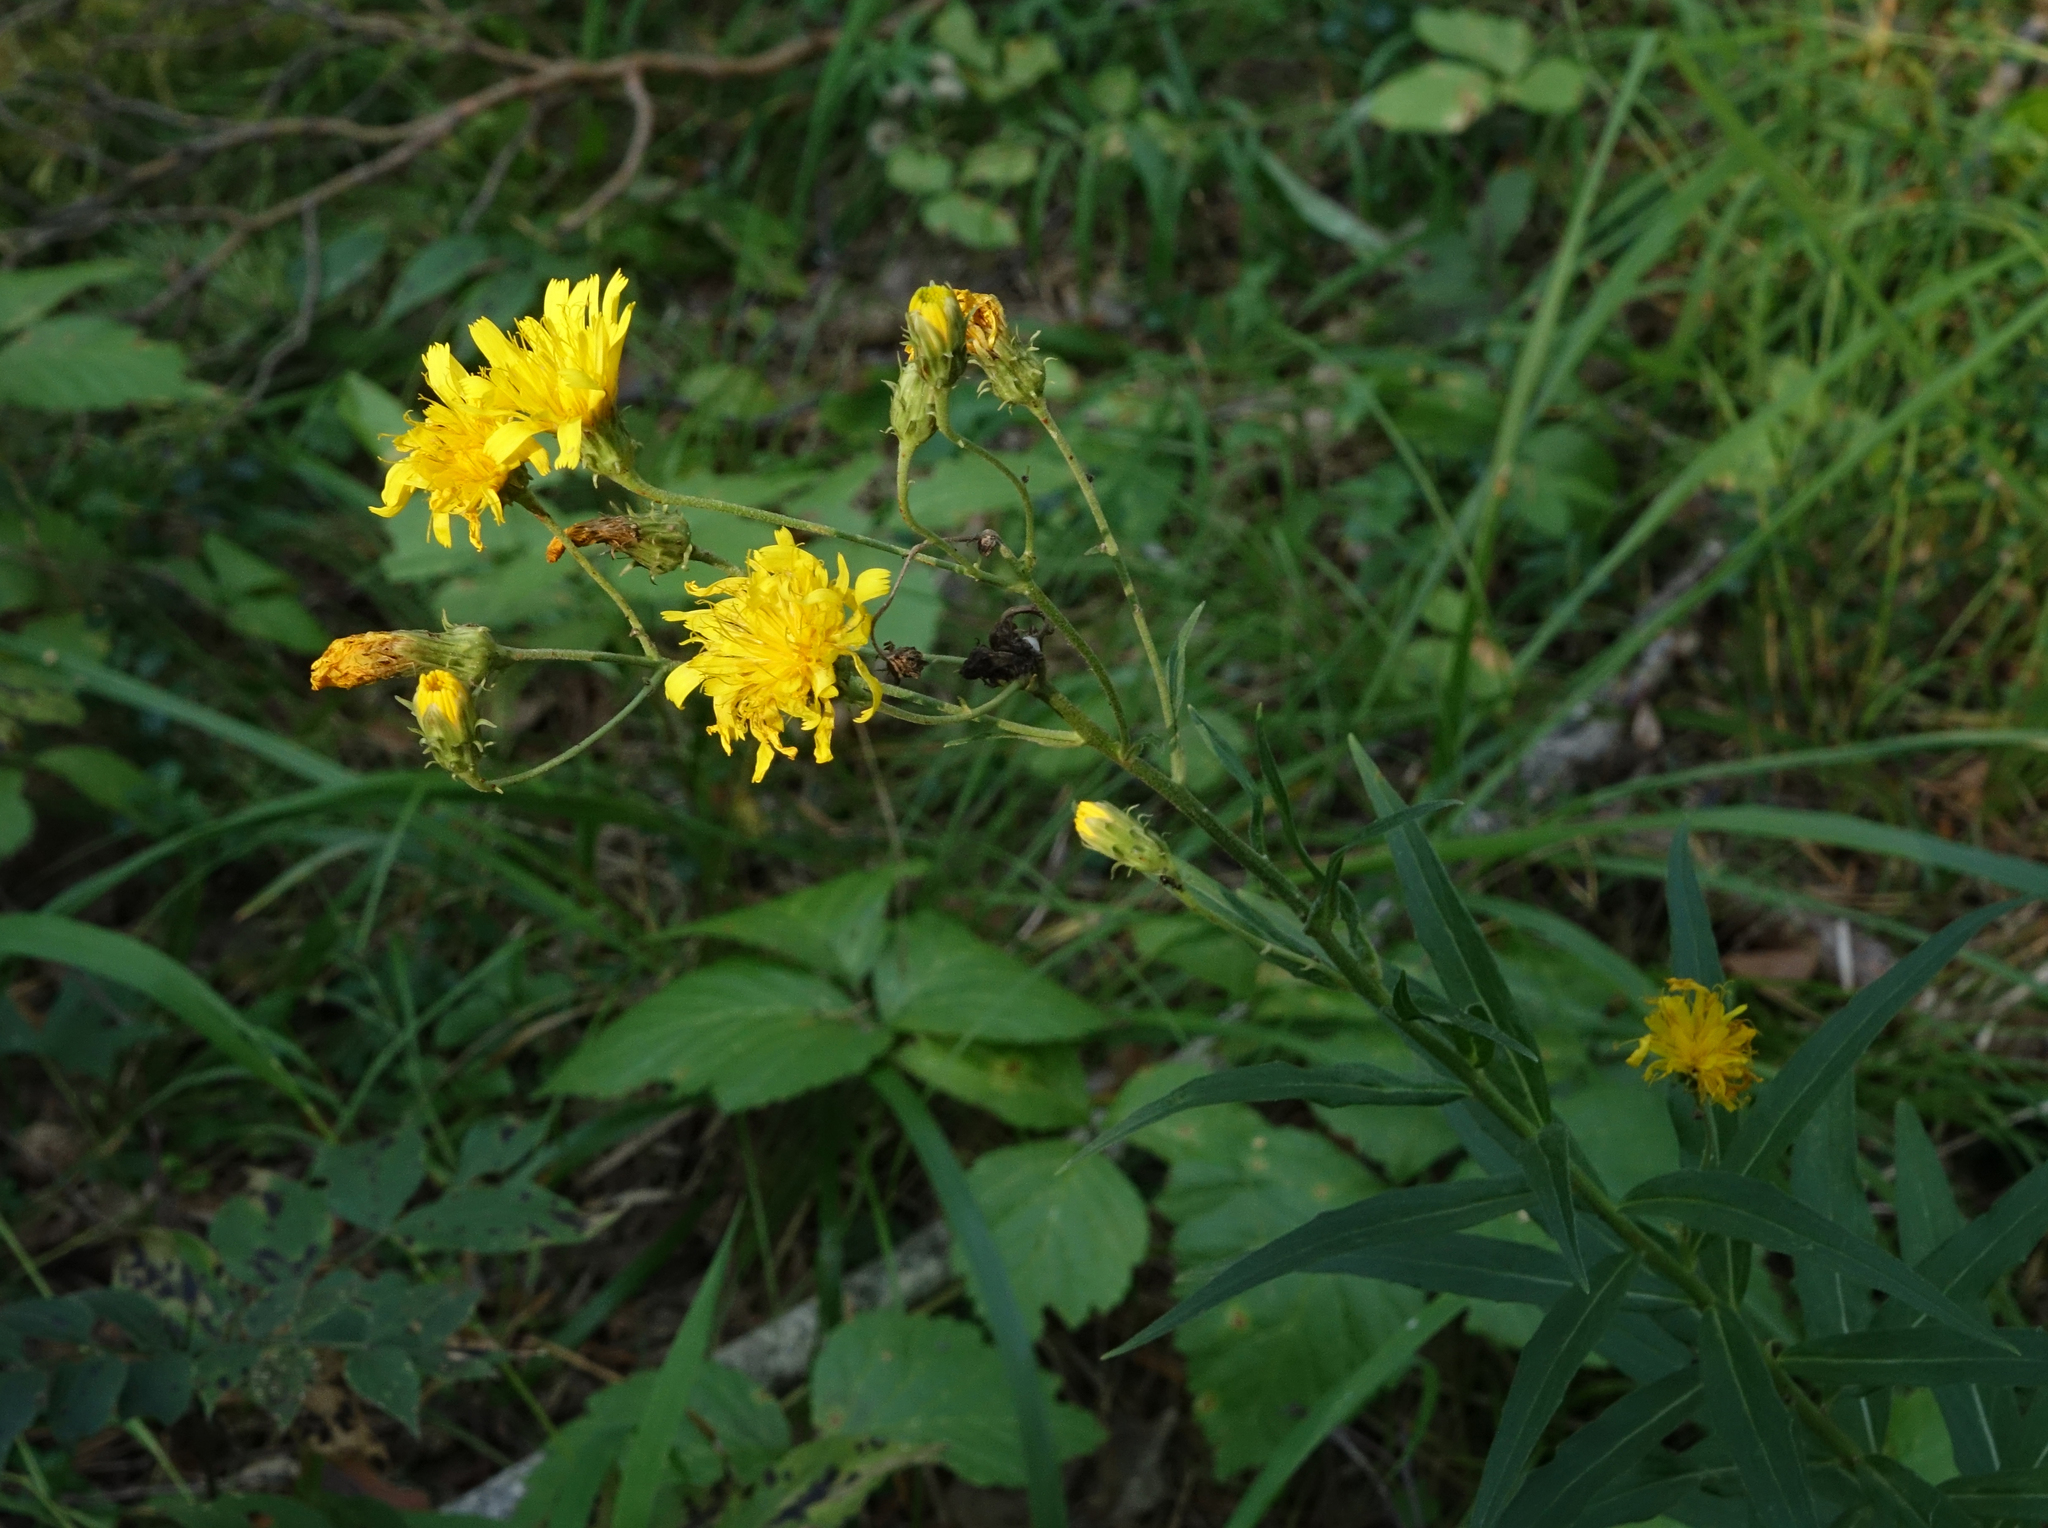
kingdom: Plantae
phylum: Tracheophyta
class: Magnoliopsida
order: Asterales
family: Asteraceae
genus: Hieracium
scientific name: Hieracium umbellatum
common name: Northern hawkweed
